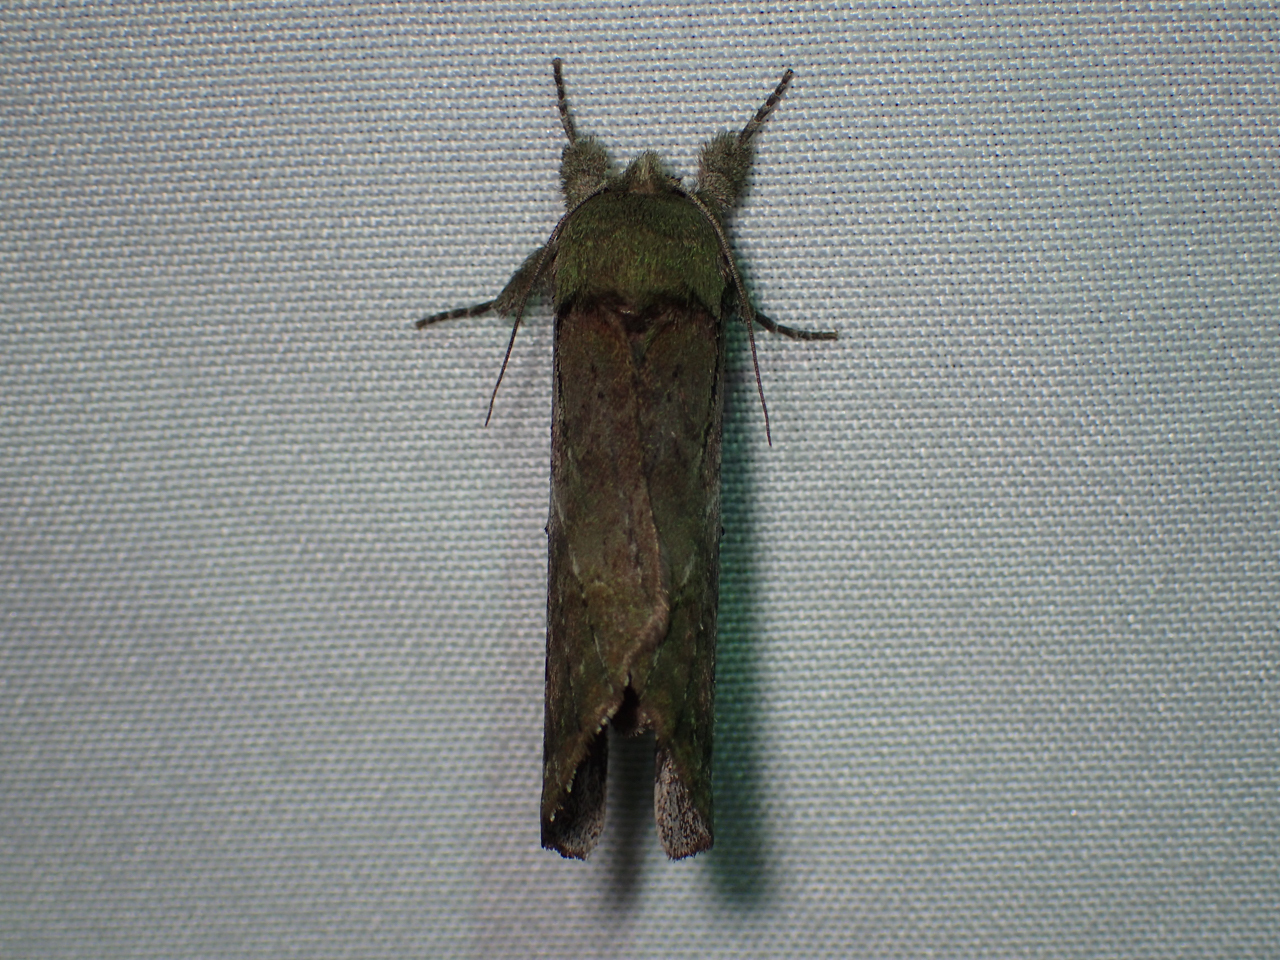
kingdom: Animalia
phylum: Arthropoda
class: Insecta
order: Lepidoptera
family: Notodontidae
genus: Schizura
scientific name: Schizura
